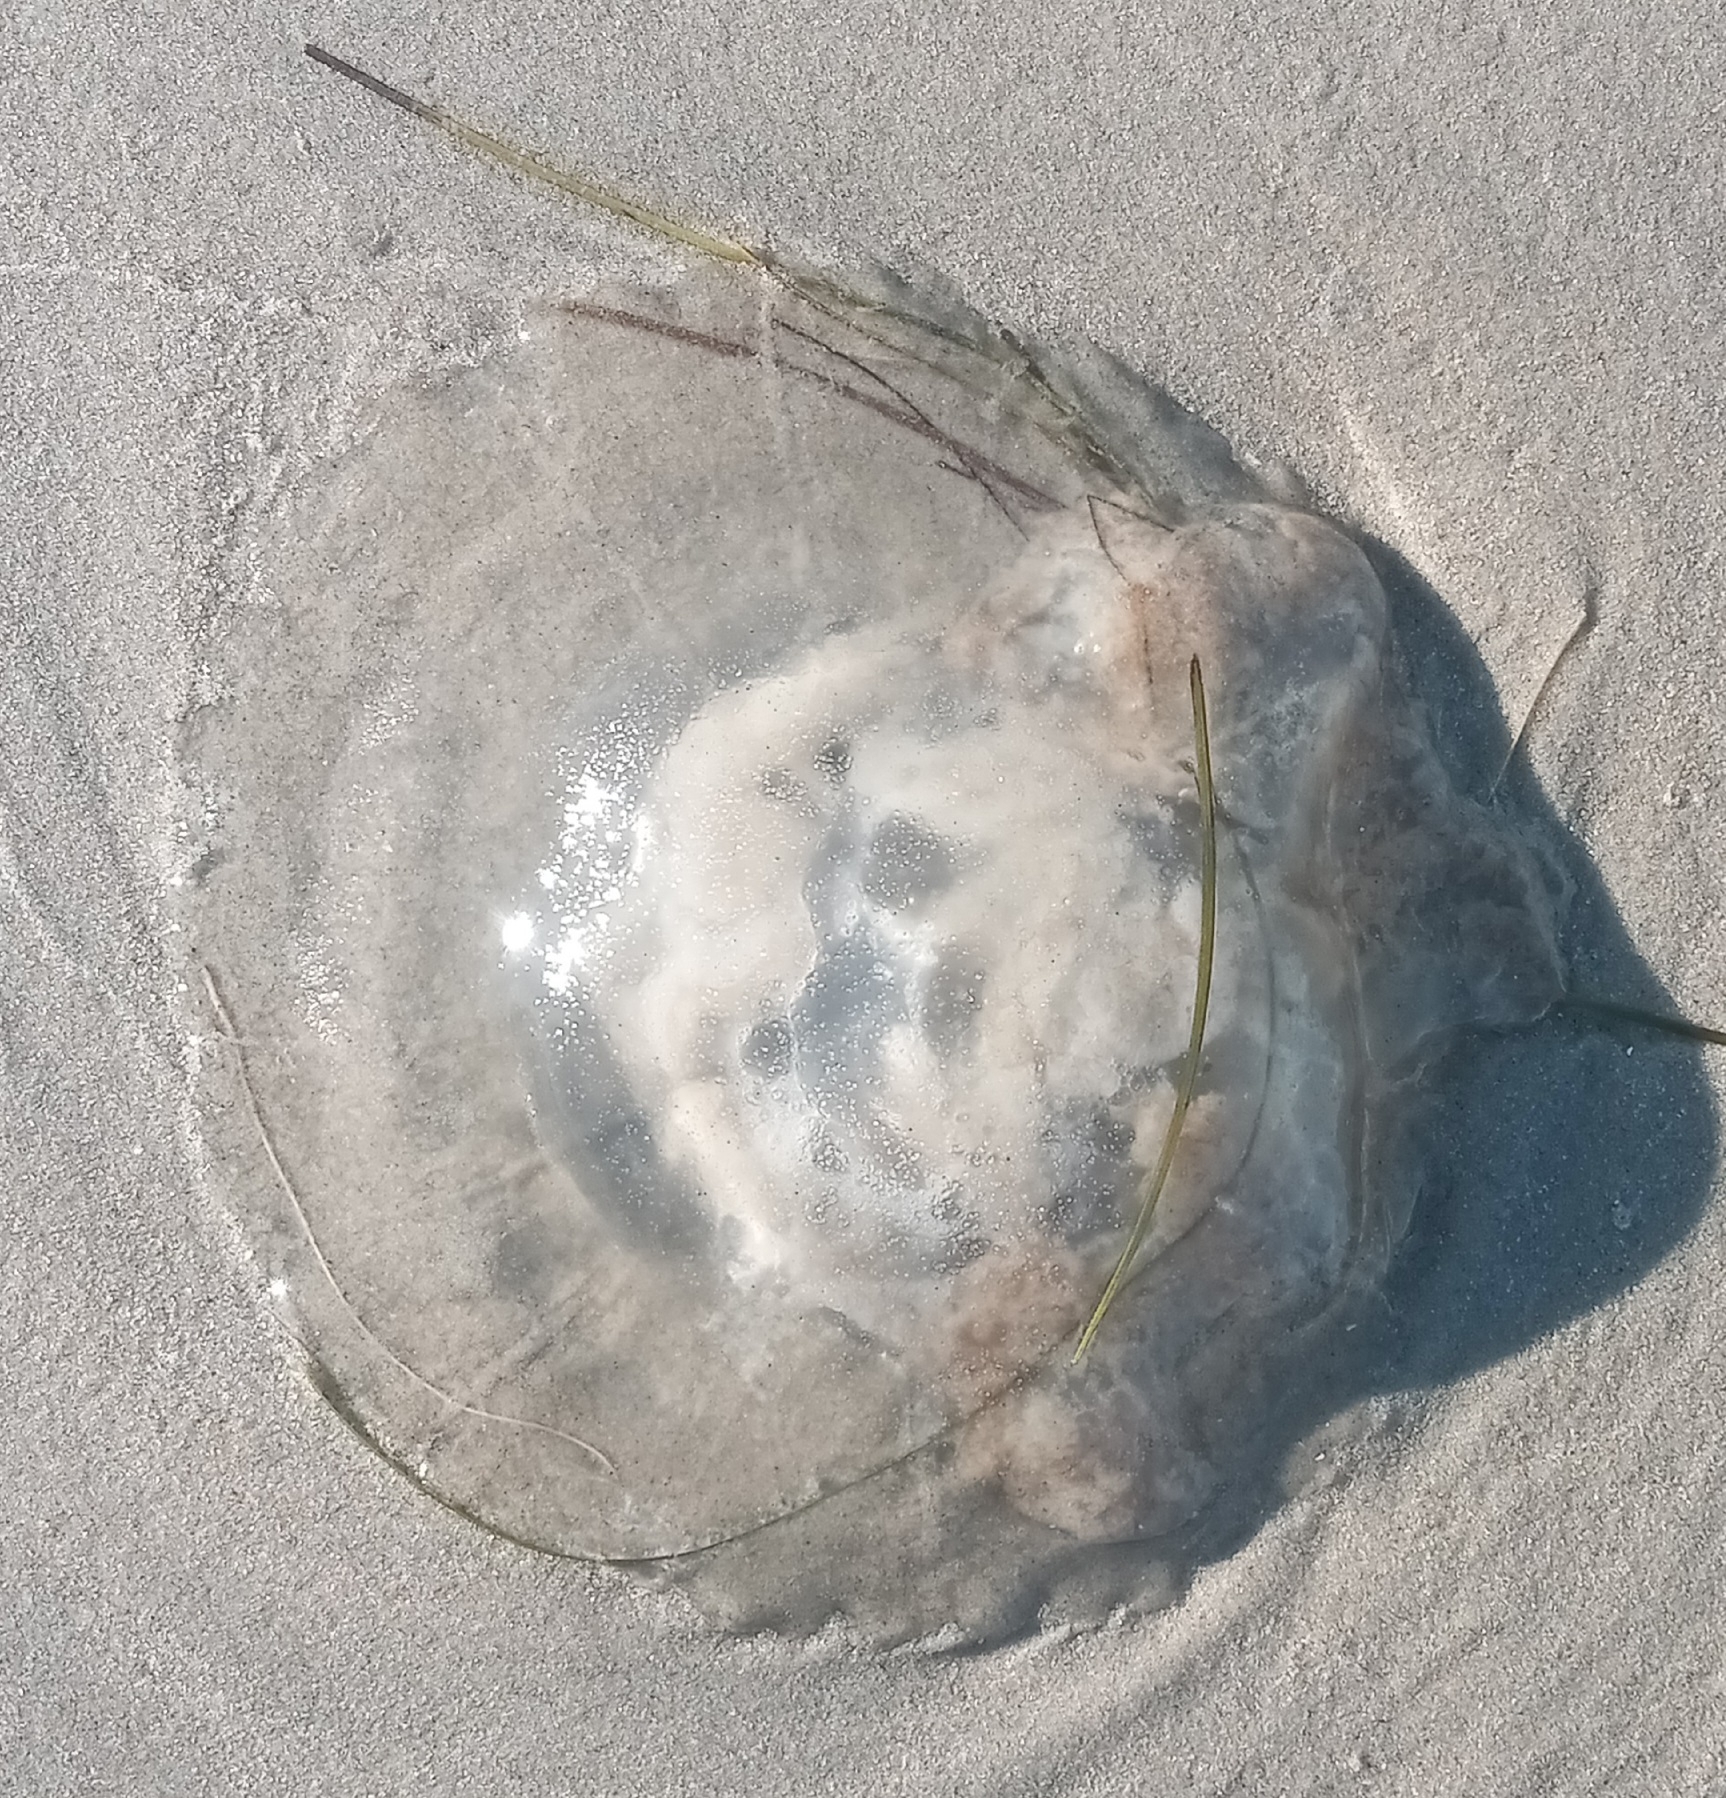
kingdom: Animalia
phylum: Cnidaria
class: Scyphozoa
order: Rhizostomeae
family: Rhizostomatidae
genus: Rhopilema
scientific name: Rhopilema verrilli
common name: Mushroom cap jellyfish
